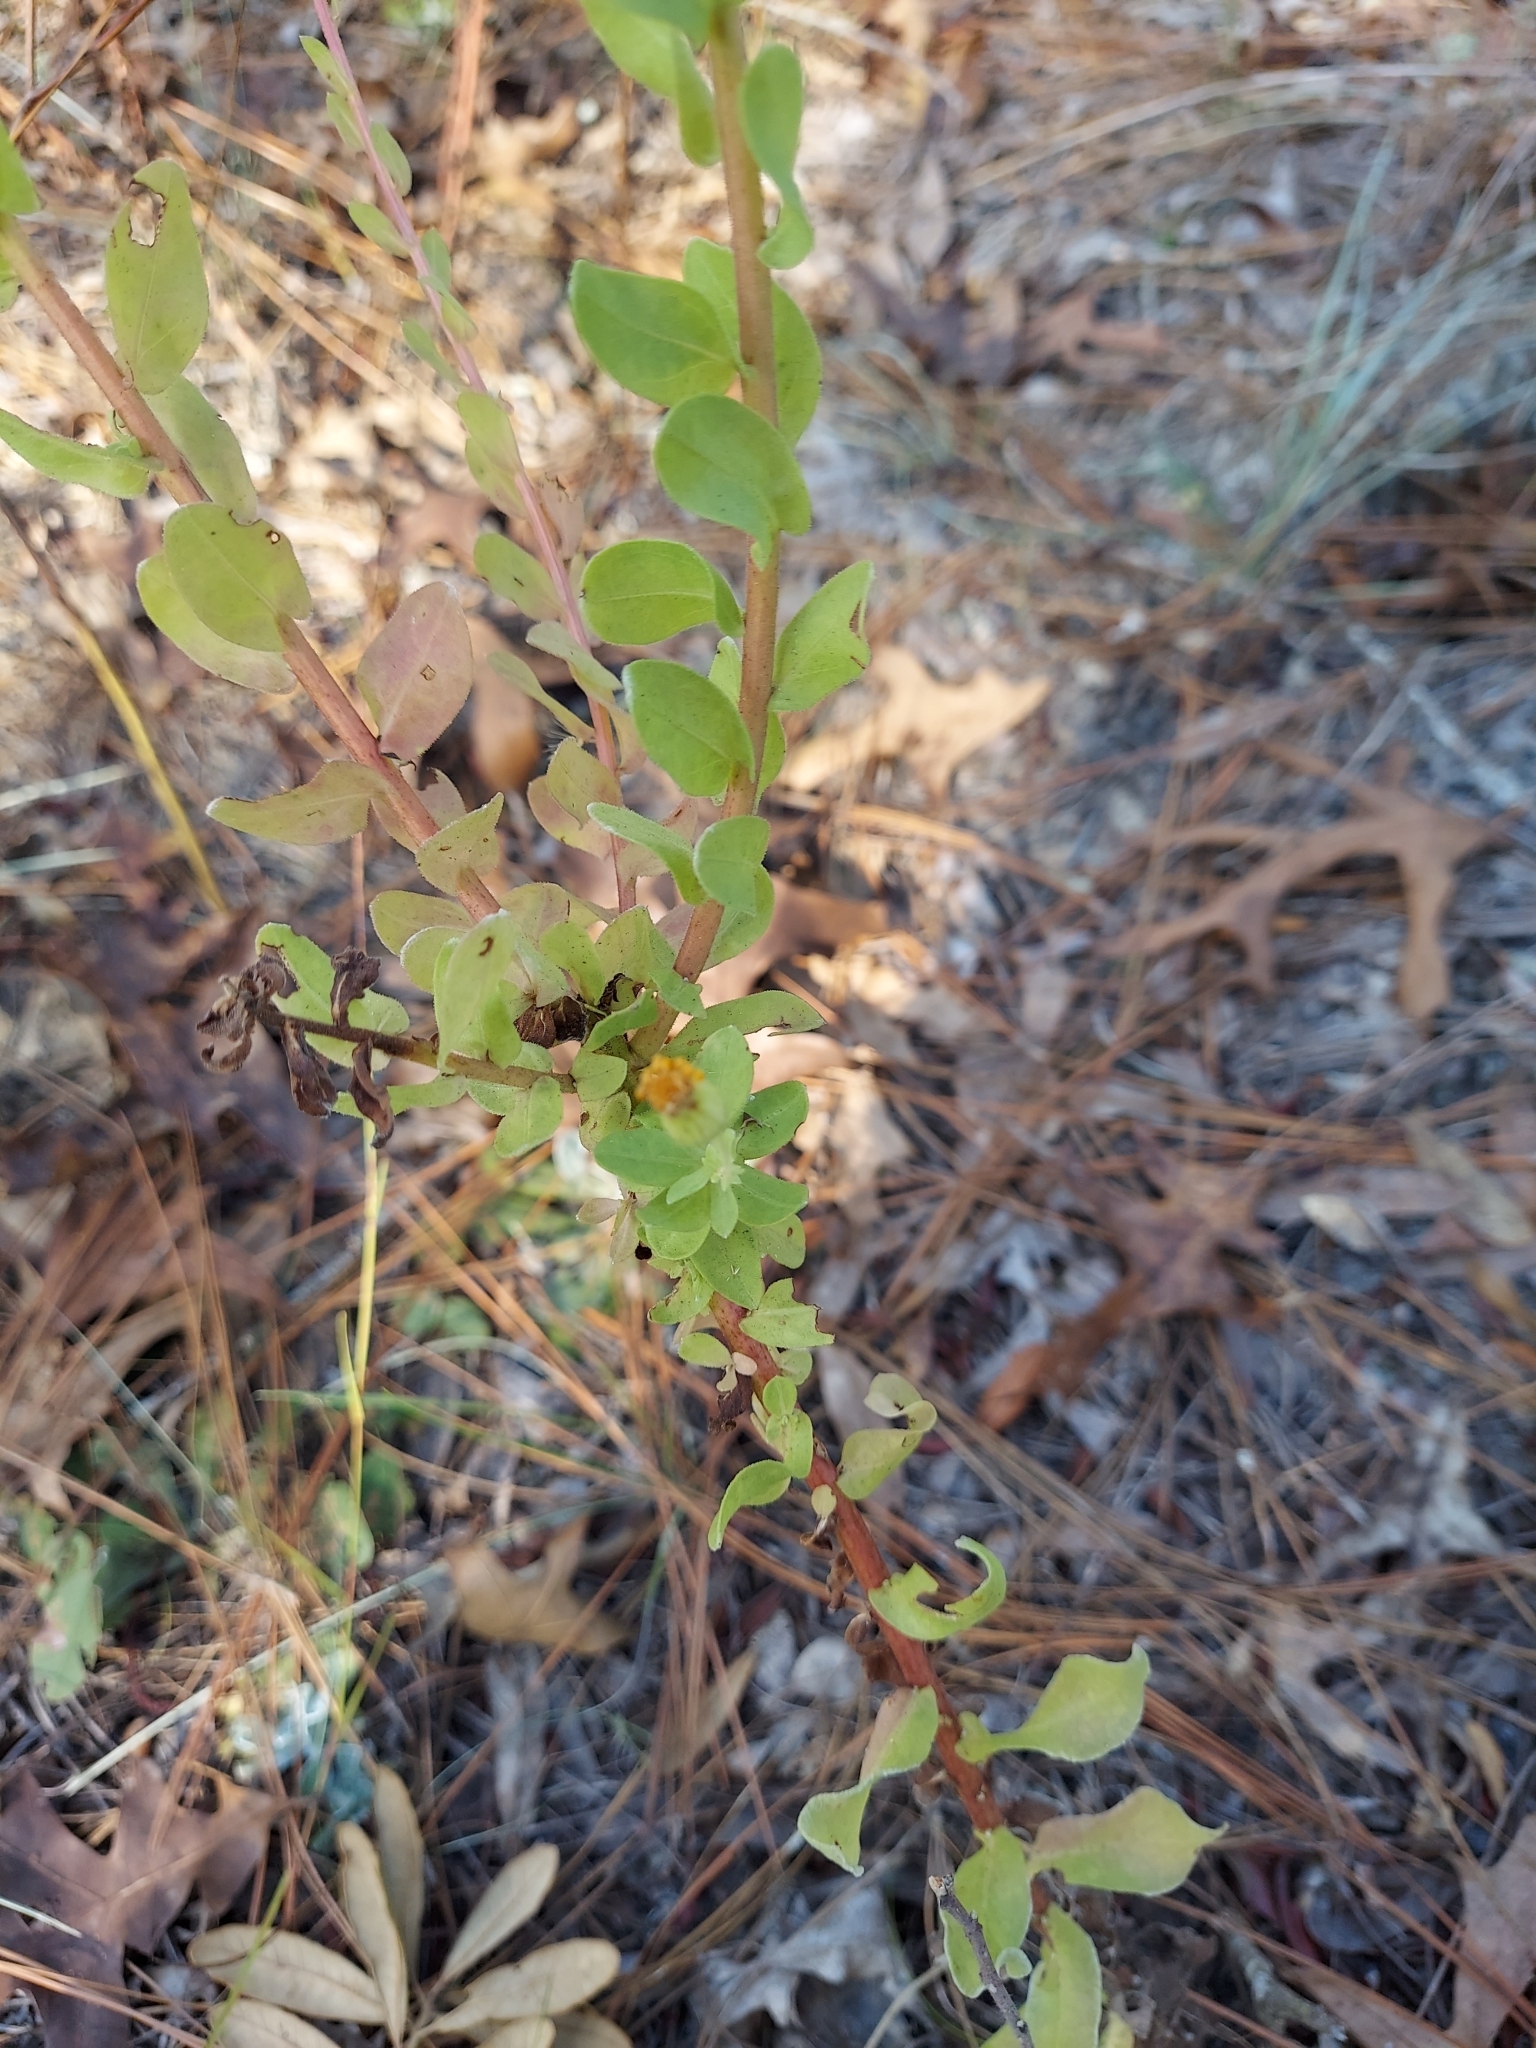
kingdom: Plantae
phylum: Tracheophyta
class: Magnoliopsida
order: Asterales
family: Asteraceae
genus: Chrysopsis
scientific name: Chrysopsis scabrella
